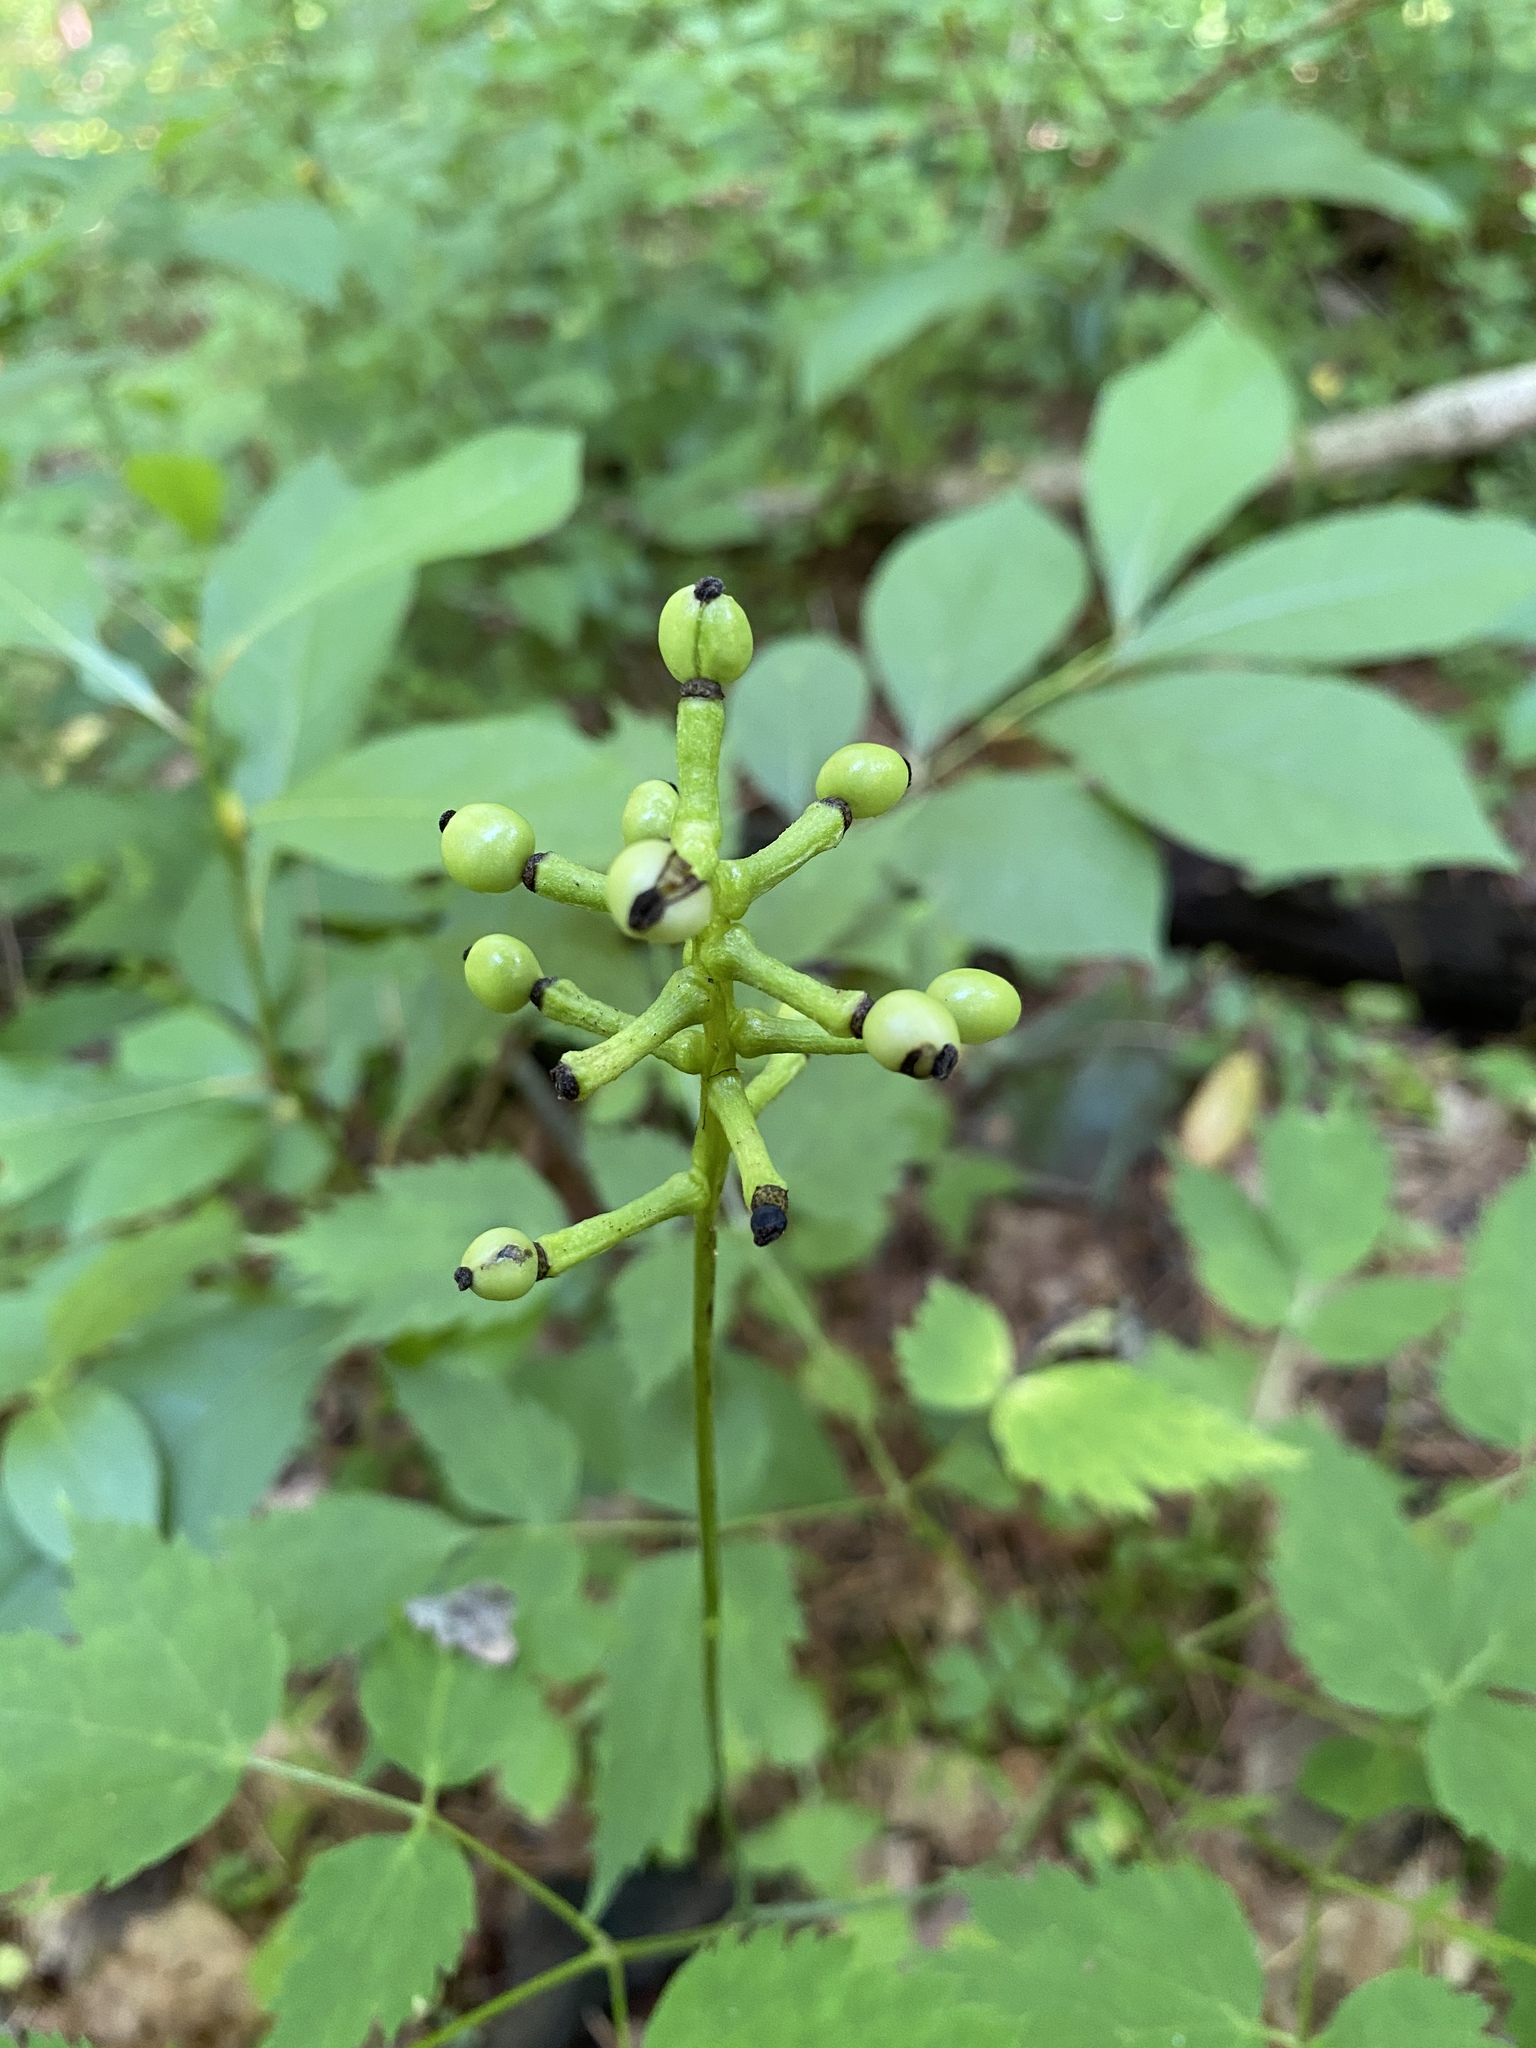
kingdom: Plantae
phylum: Tracheophyta
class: Magnoliopsida
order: Ranunculales
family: Ranunculaceae
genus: Actaea
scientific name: Actaea pachypoda
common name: Doll's-eyes
